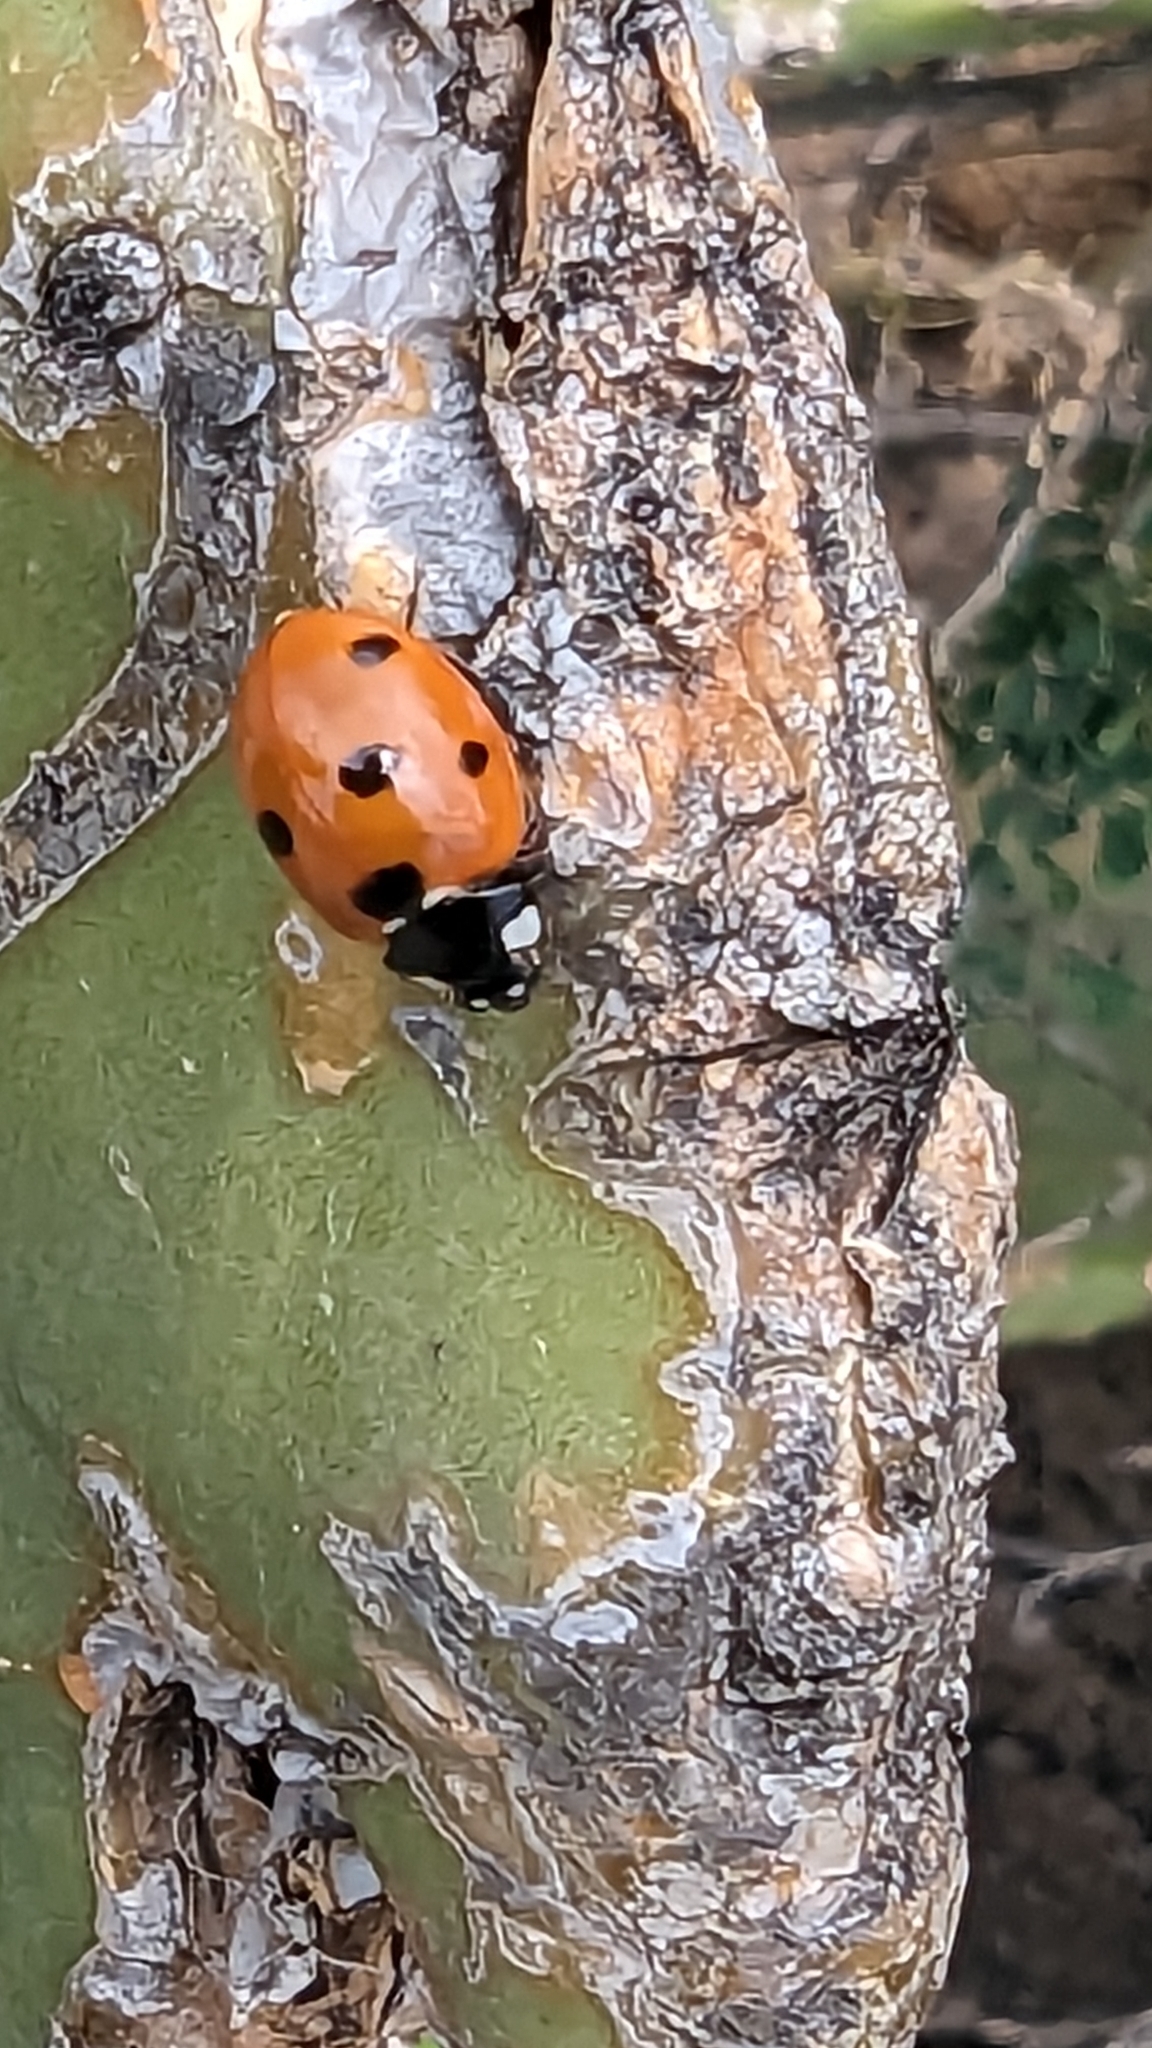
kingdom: Animalia
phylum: Arthropoda
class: Insecta
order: Coleoptera
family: Coccinellidae
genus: Coccinella
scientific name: Coccinella septempunctata
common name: Sevenspotted lady beetle
